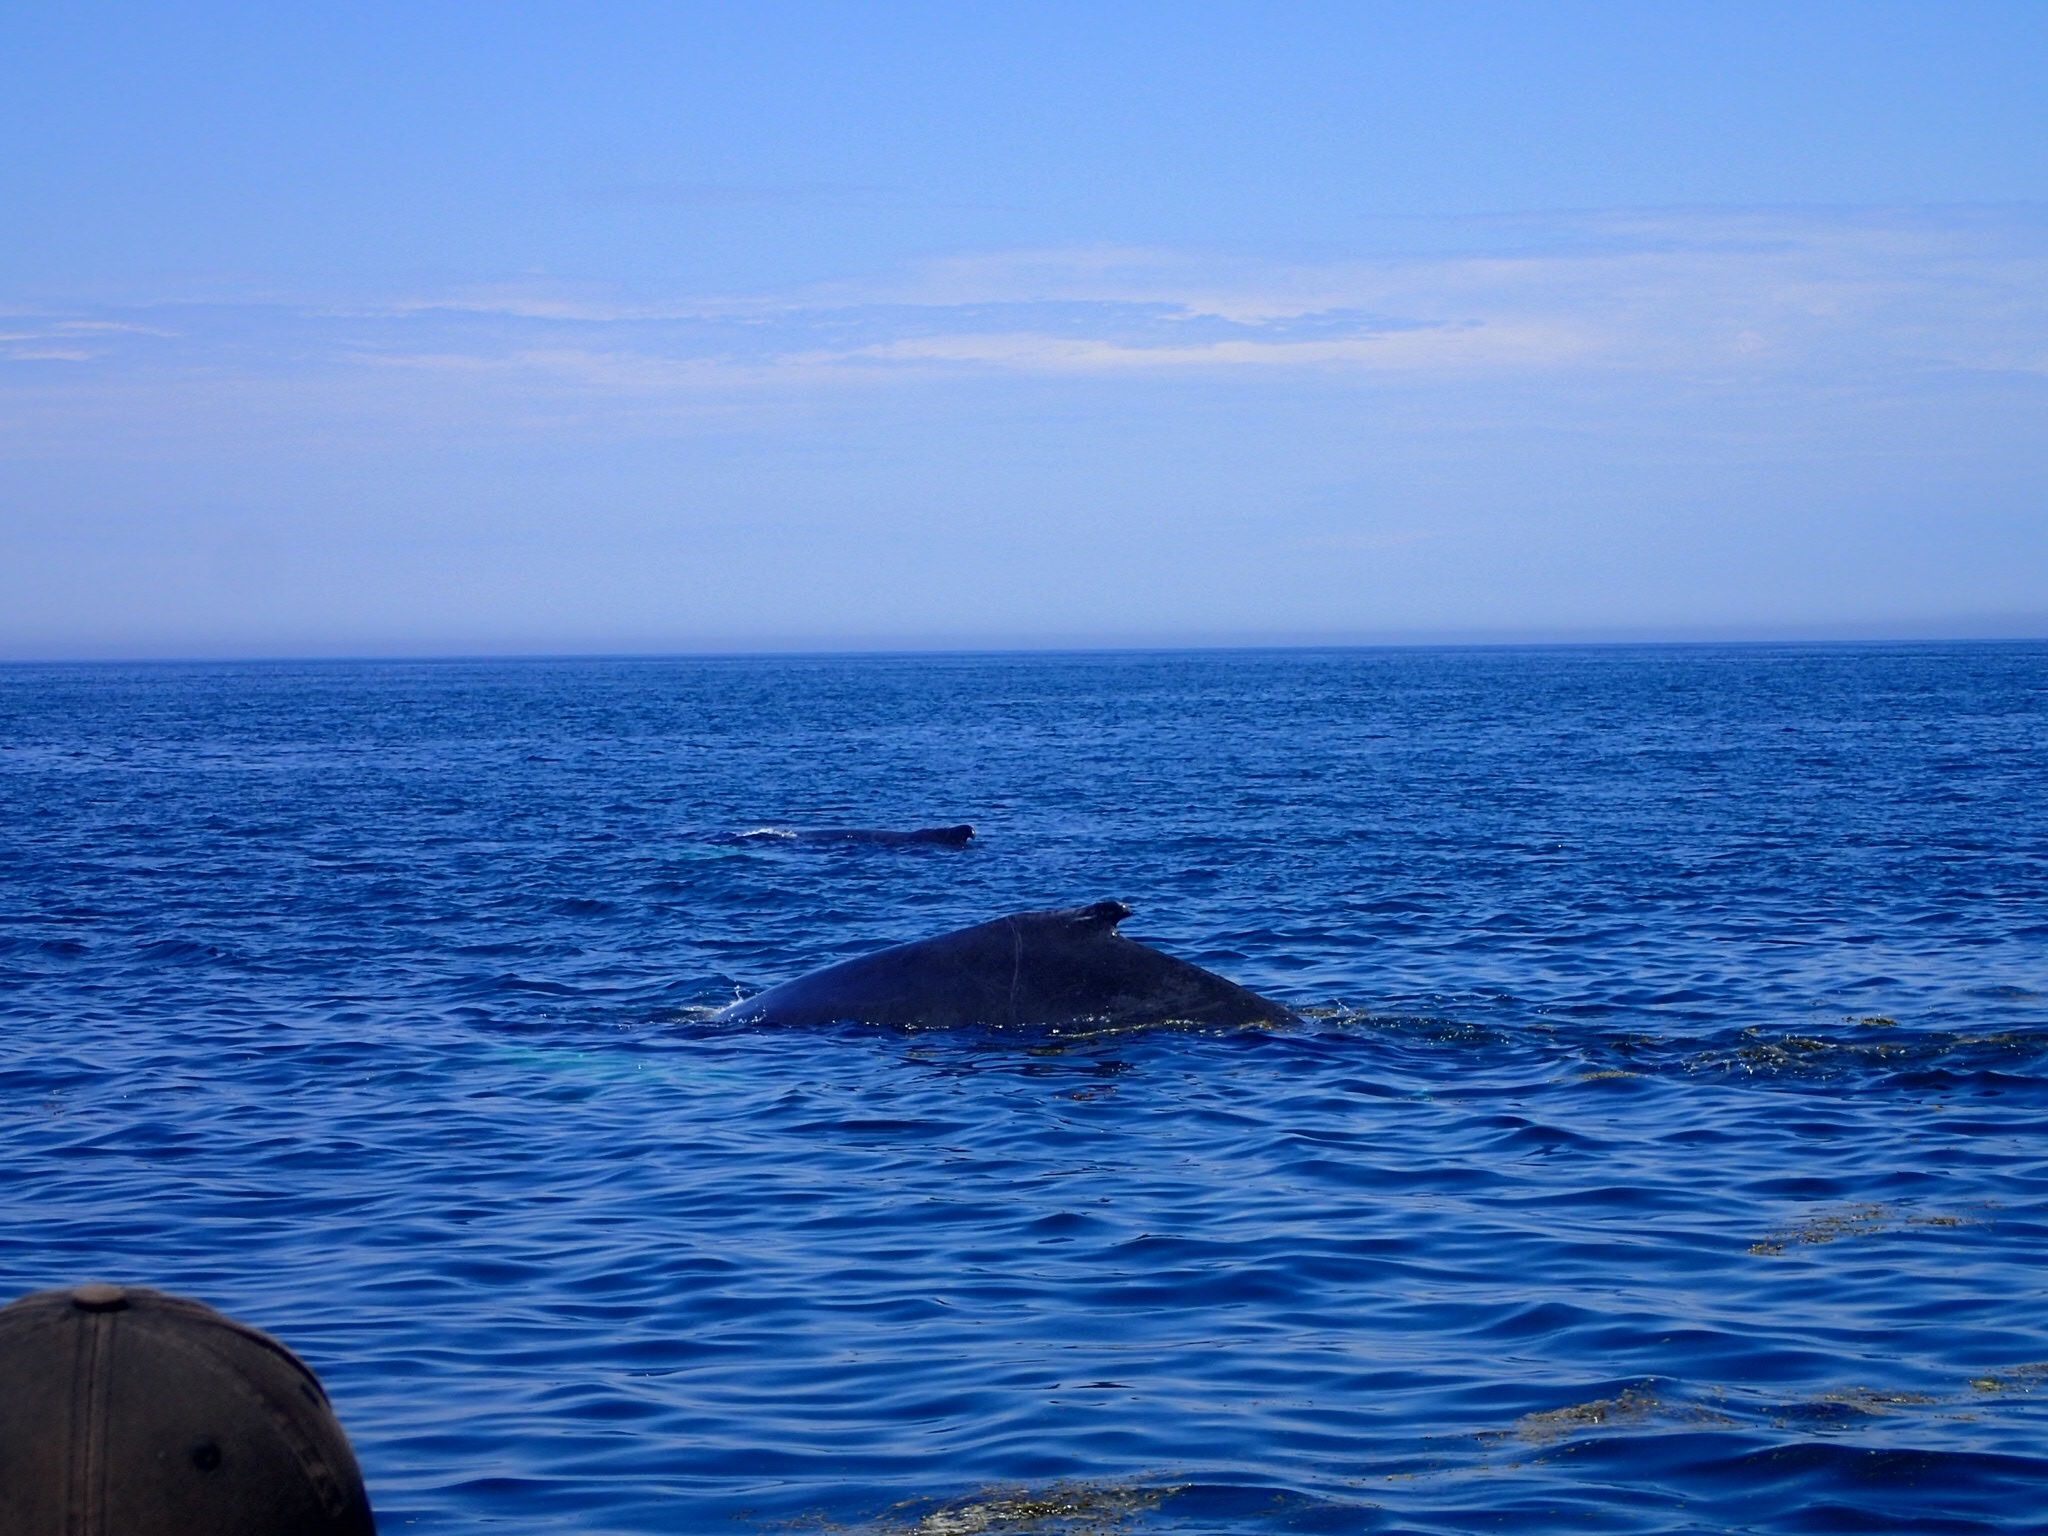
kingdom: Animalia
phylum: Chordata
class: Mammalia
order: Cetacea
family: Balaenopteridae
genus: Megaptera
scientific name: Megaptera novaeangliae
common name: Humpback whale
